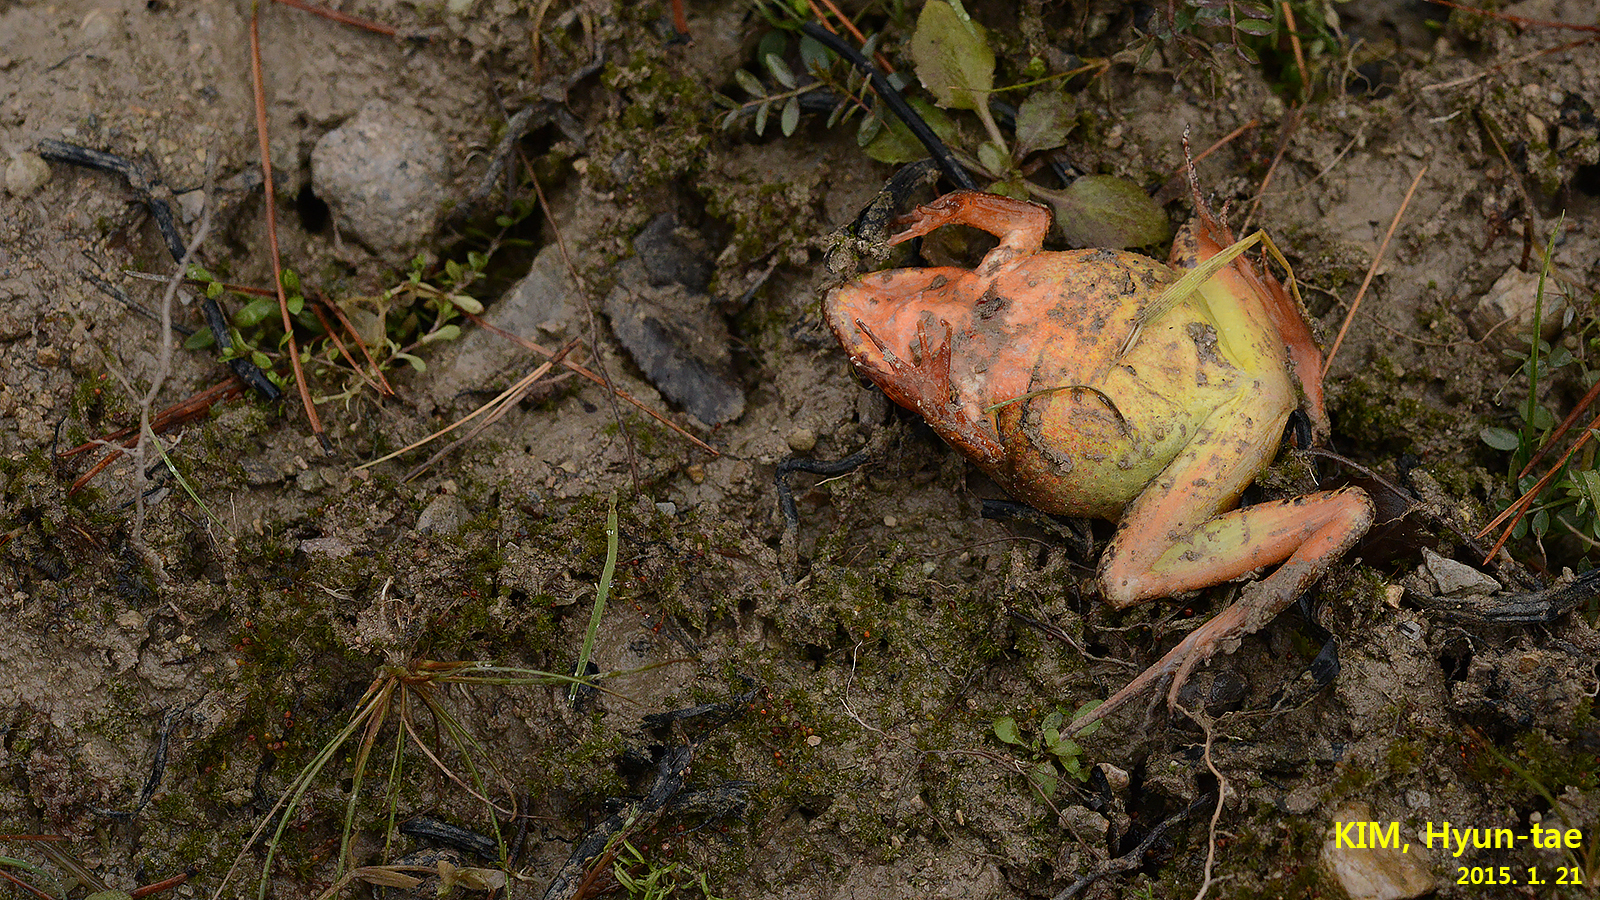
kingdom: Animalia
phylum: Chordata
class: Amphibia
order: Anura
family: Ranidae
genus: Rana
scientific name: Rana uenoi
